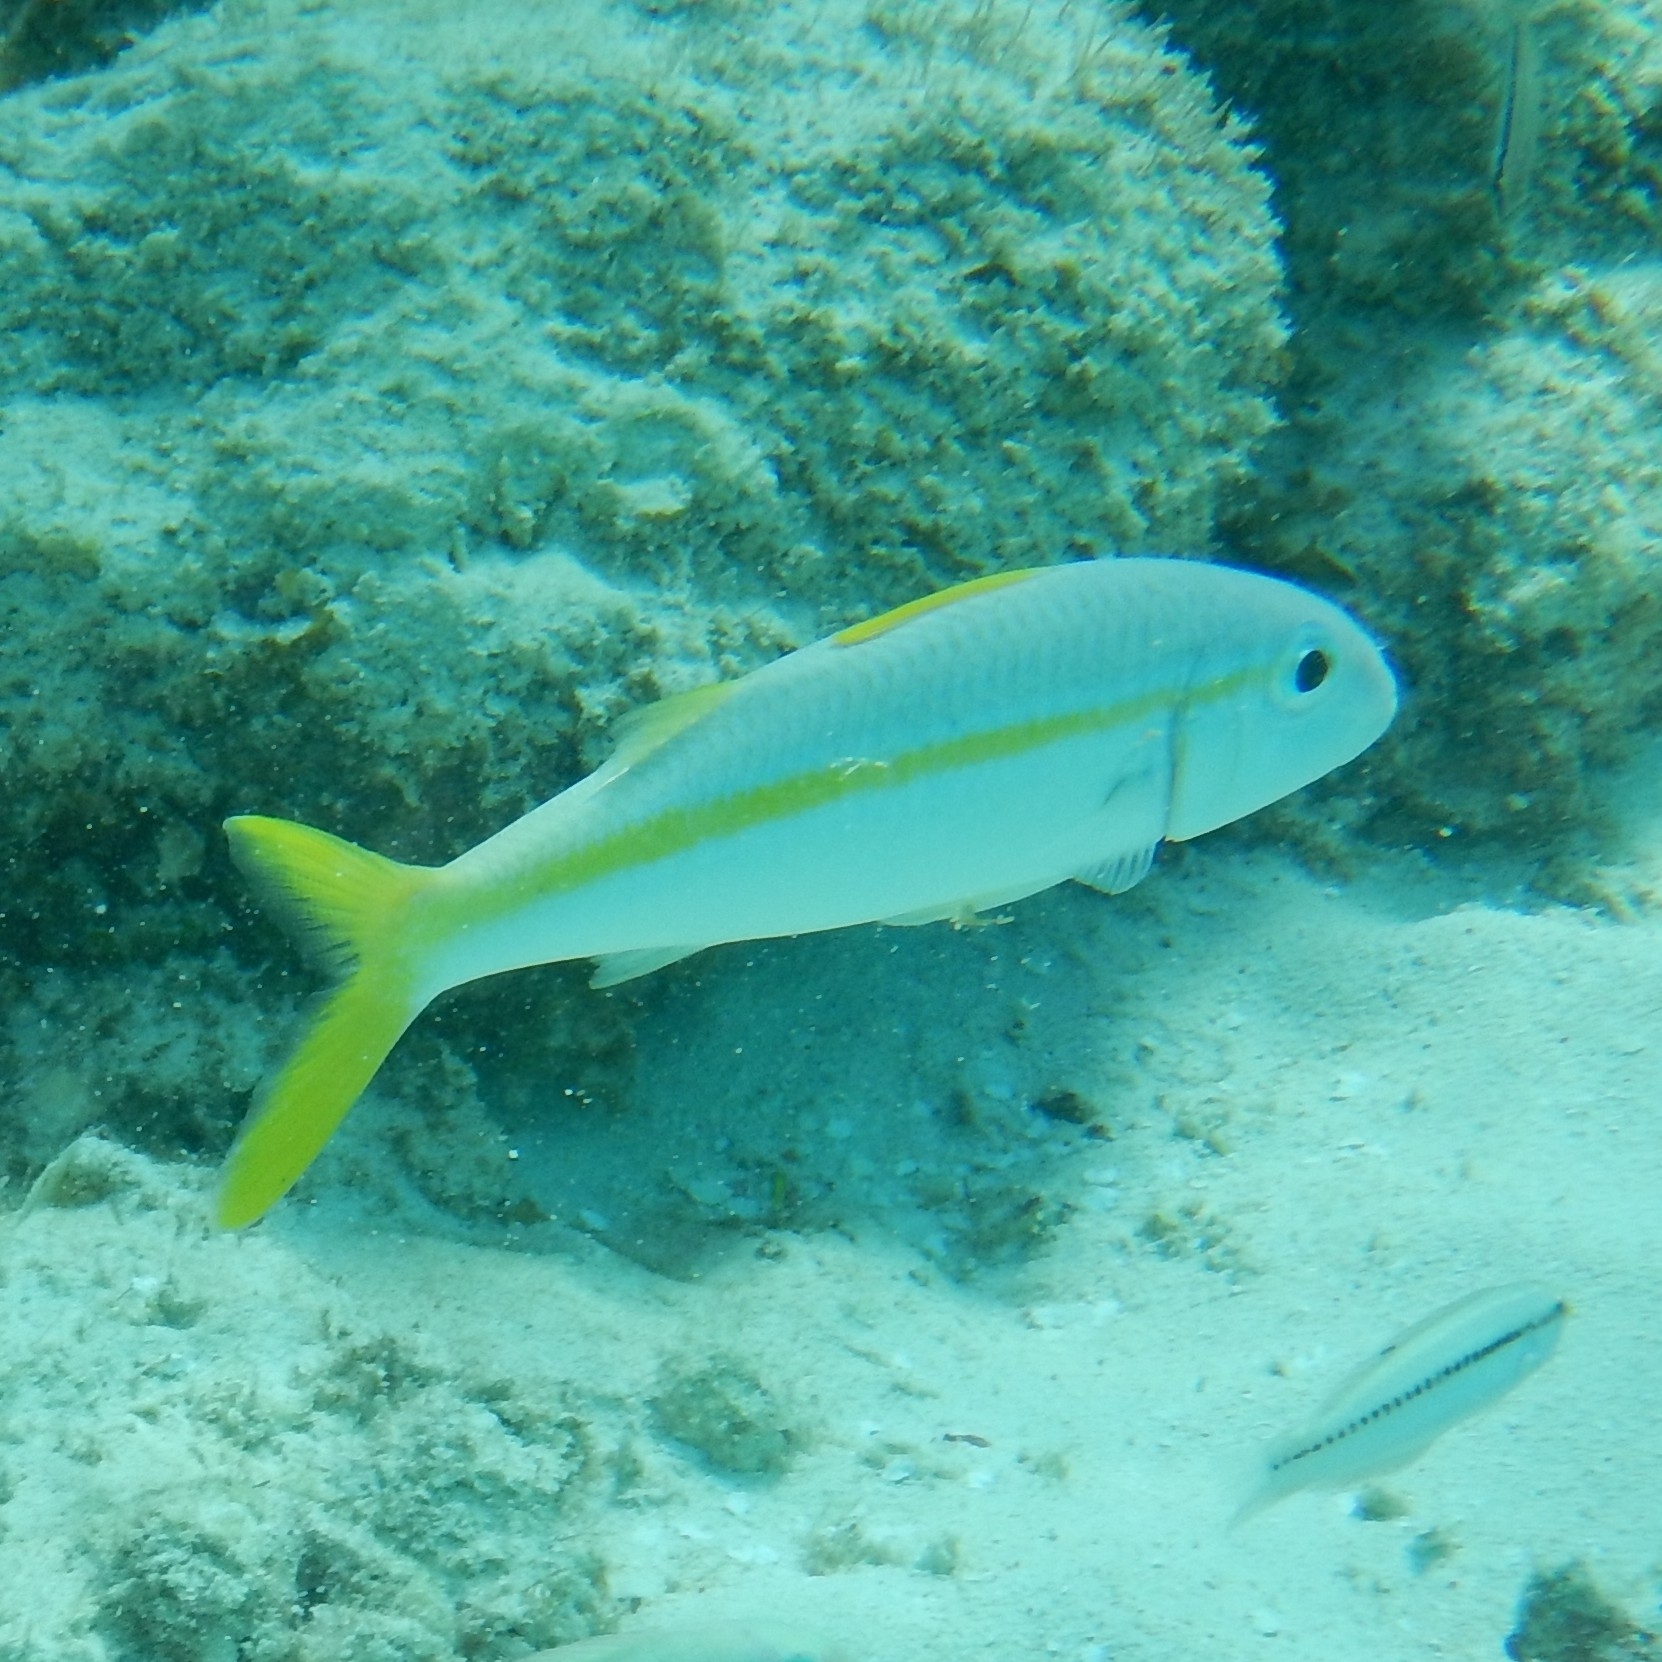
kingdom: Animalia
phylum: Chordata
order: Perciformes
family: Mullidae
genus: Mulloidichthys
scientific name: Mulloidichthys martinicus
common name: Yellow goatfish
